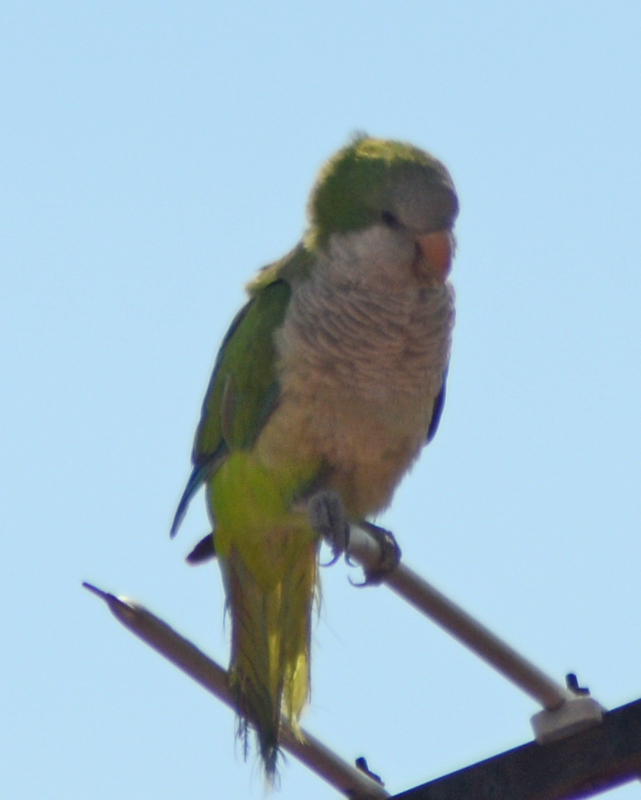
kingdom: Animalia
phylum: Chordata
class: Aves
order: Psittaciformes
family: Psittacidae
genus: Myiopsitta
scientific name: Myiopsitta monachus
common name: Monk parakeet
